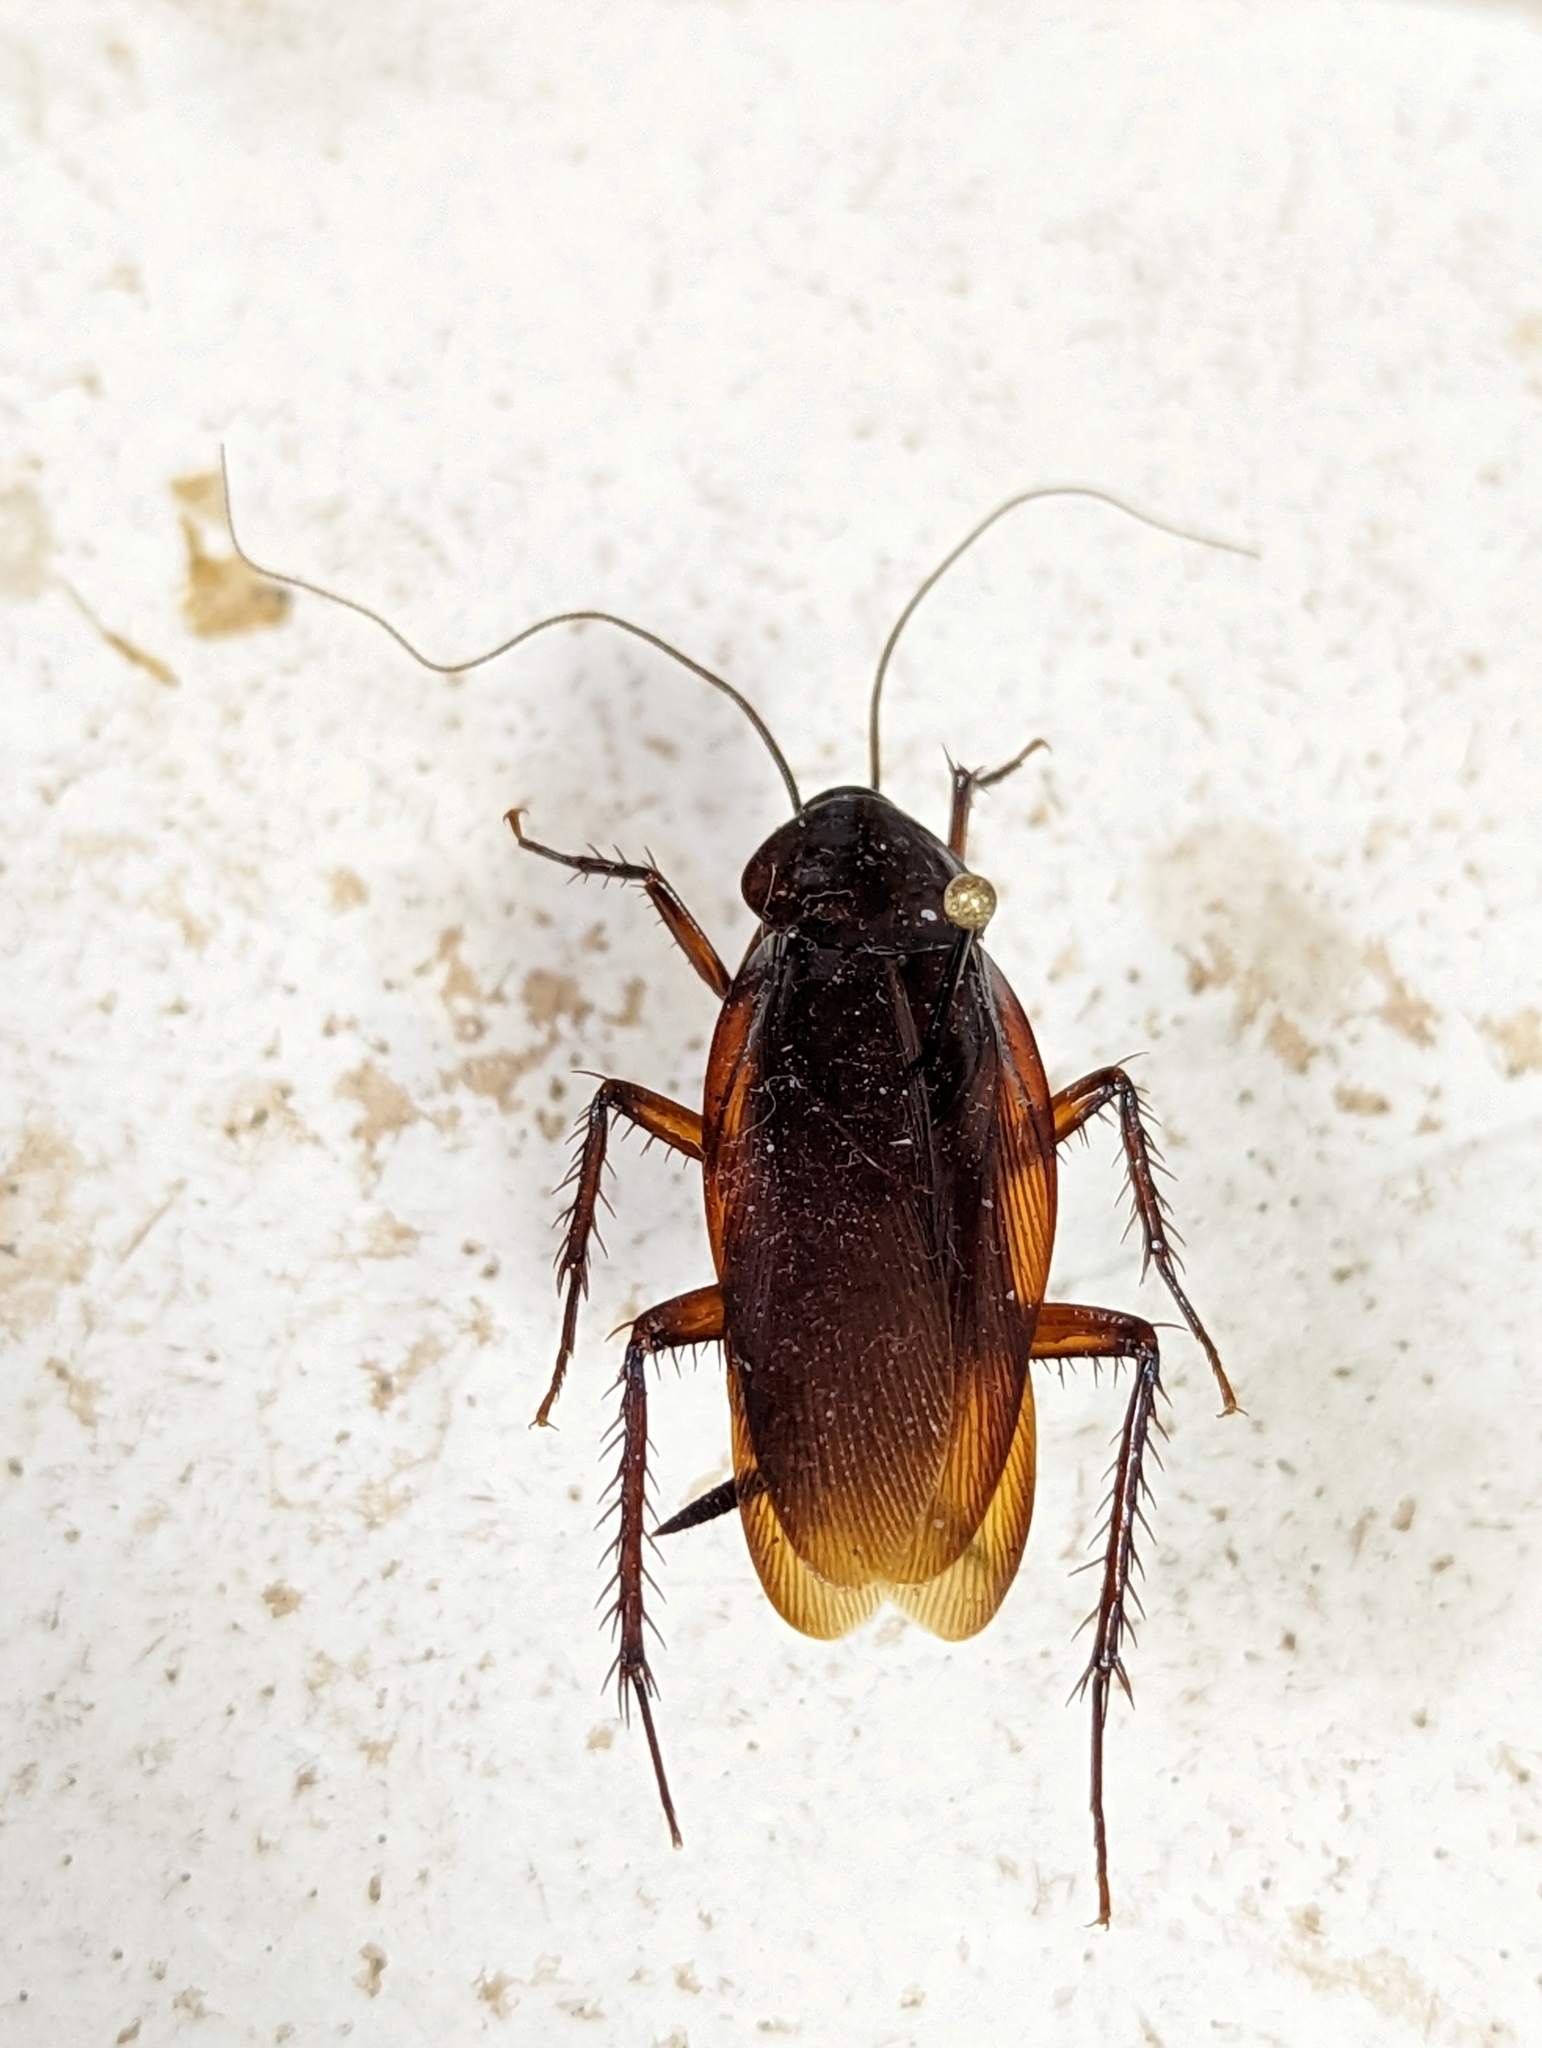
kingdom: Animalia
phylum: Arthropoda
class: Insecta
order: Blattodea
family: Blattidae
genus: Periplaneta
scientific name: Periplaneta fuliginosa
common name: Smokeybrown cockroad
